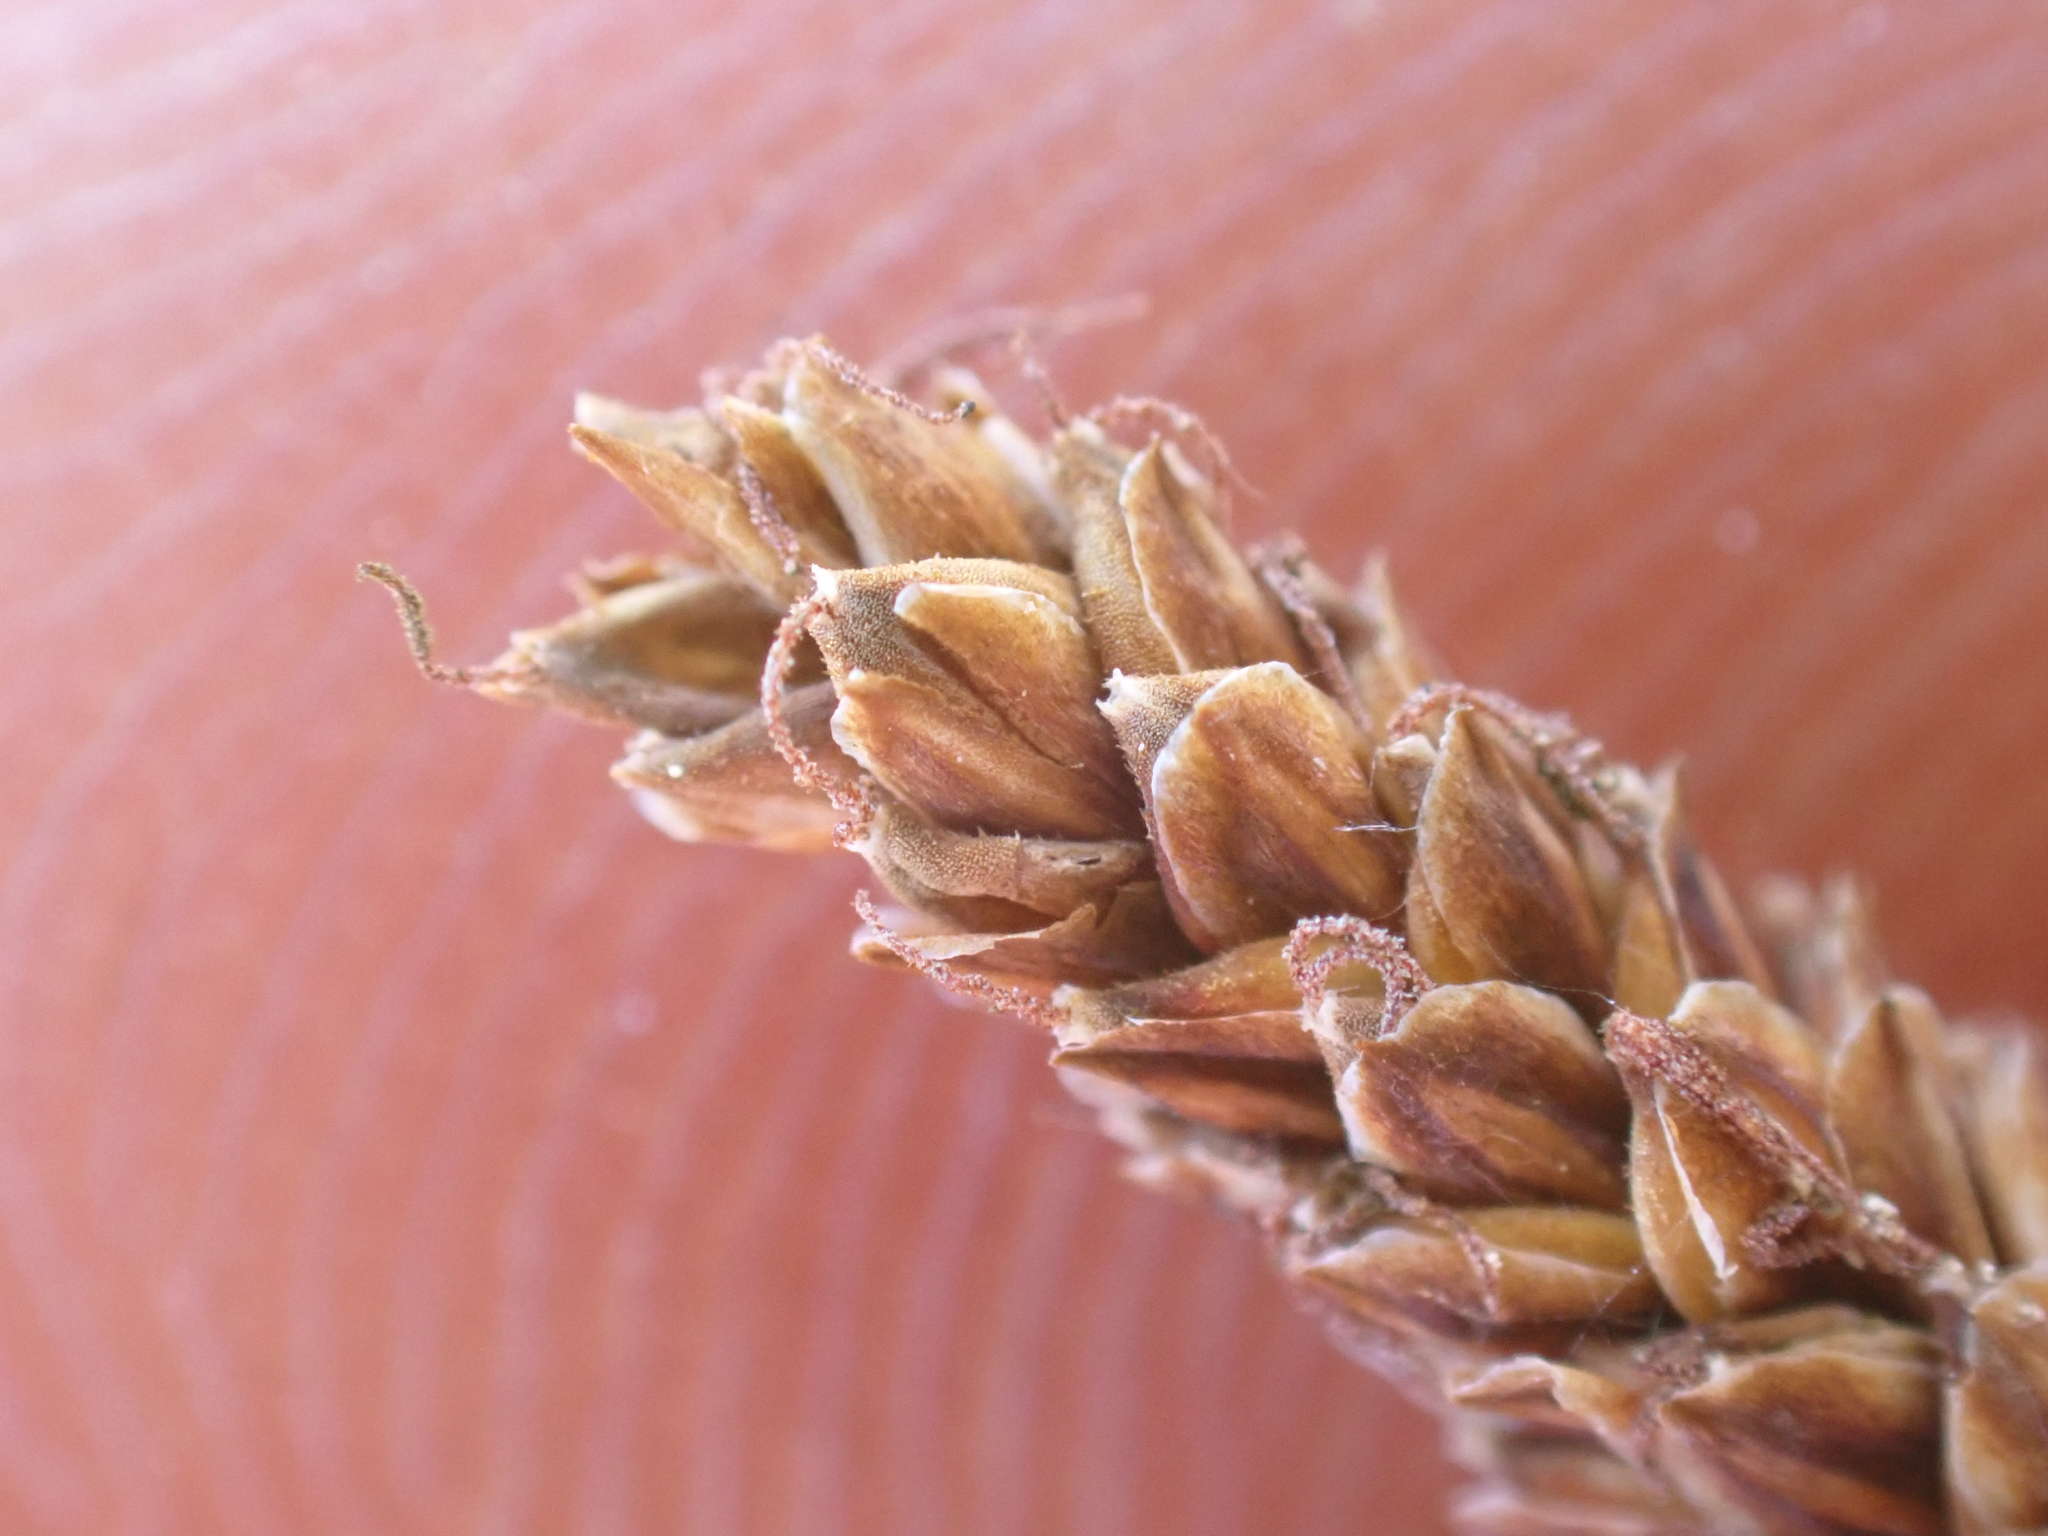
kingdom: Plantae
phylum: Tracheophyta
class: Liliopsida
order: Poales
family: Cyperaceae
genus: Carex
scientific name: Carex idahoa
